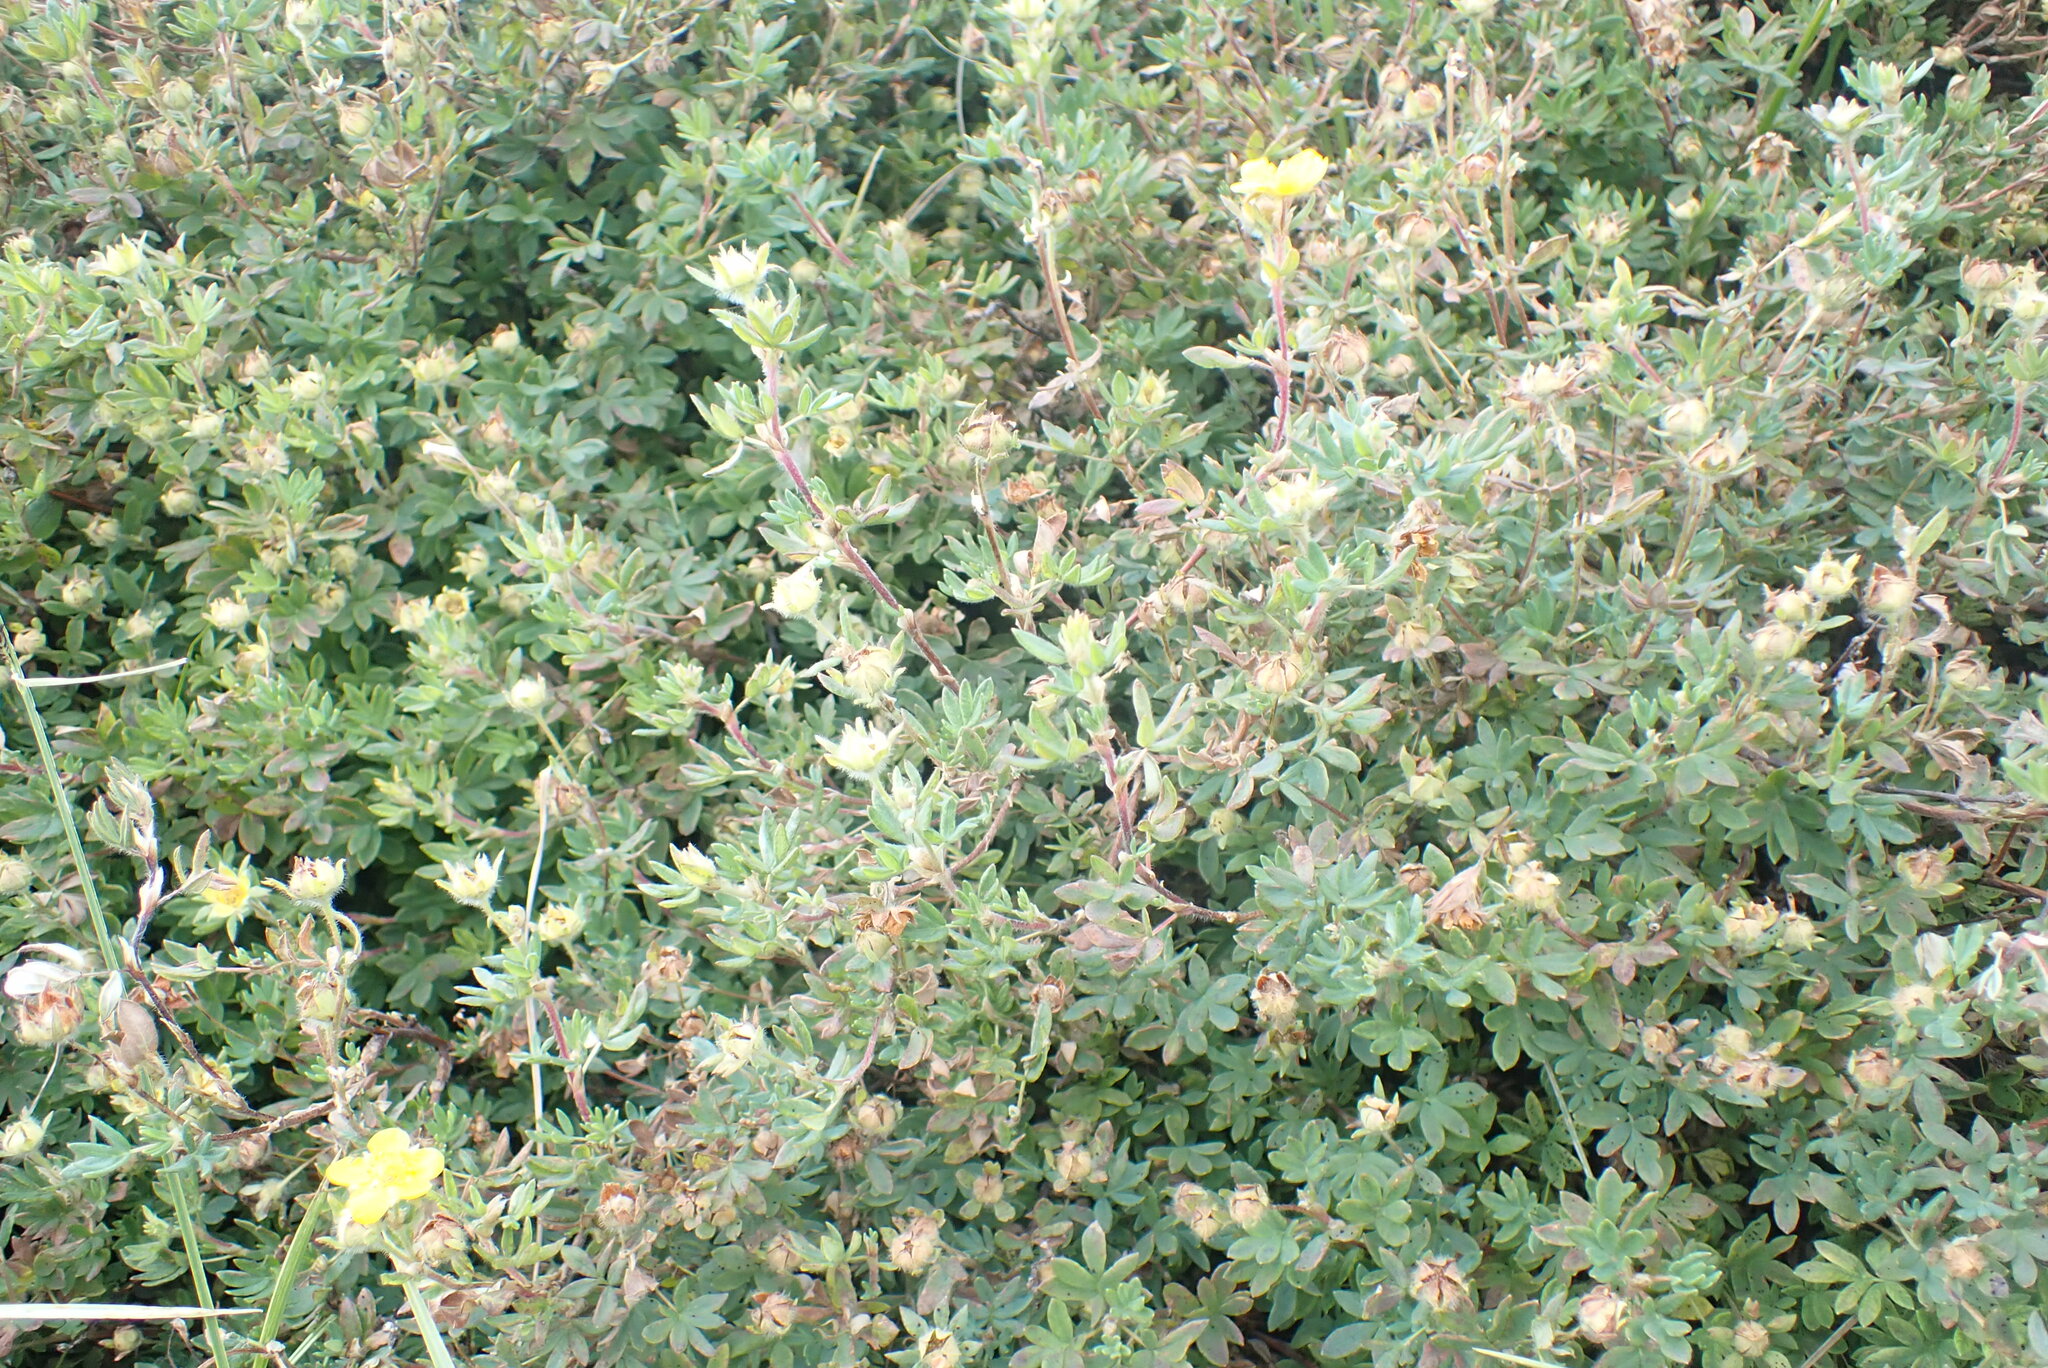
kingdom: Plantae
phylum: Tracheophyta
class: Magnoliopsida
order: Rosales
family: Rosaceae
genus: Dasiphora
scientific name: Dasiphora fruticosa
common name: Shrubby cinquefoil
